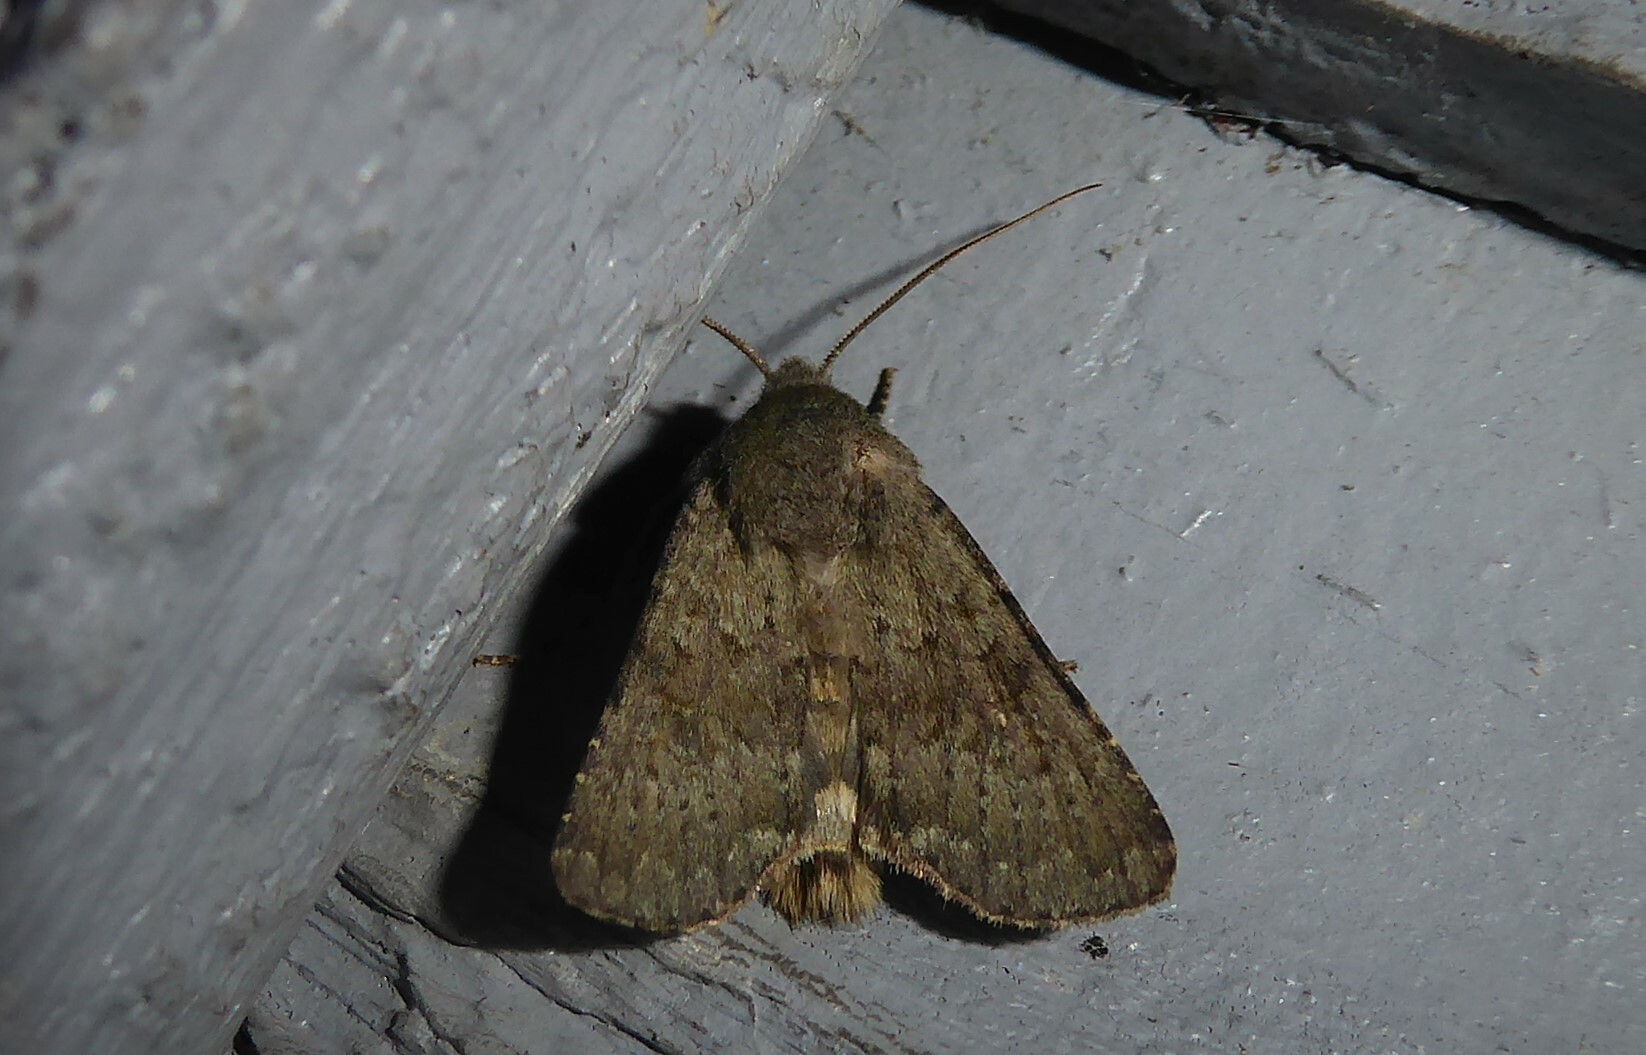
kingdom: Animalia
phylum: Arthropoda
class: Insecta
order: Lepidoptera
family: Noctuidae
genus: Ichneutica
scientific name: Ichneutica moderata
